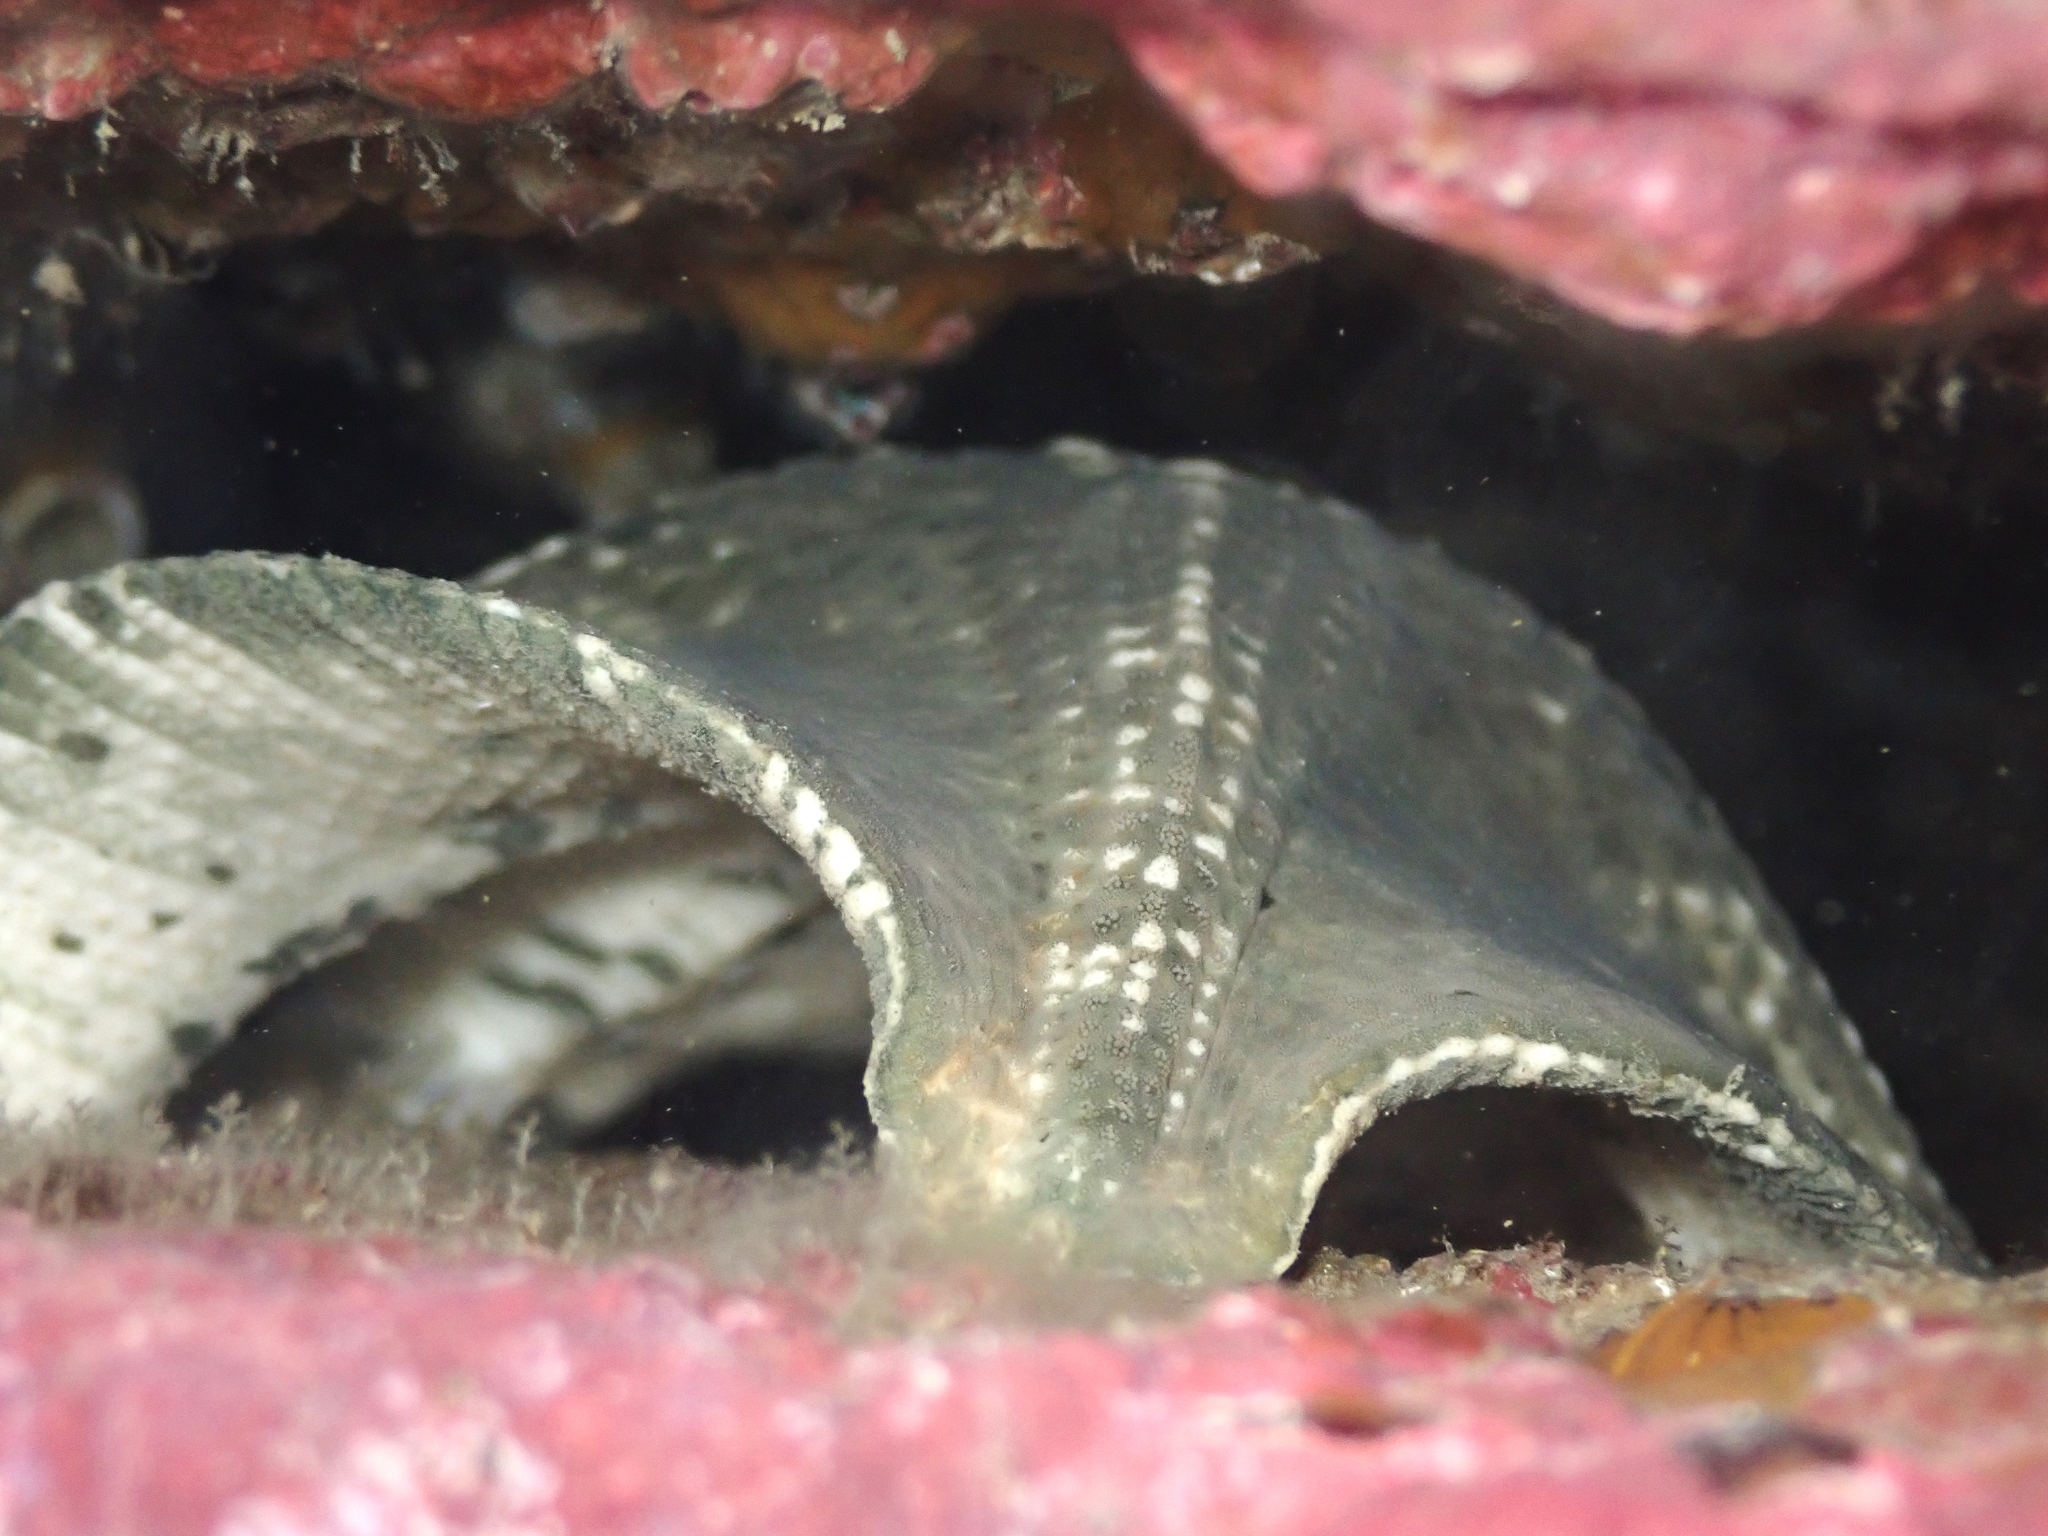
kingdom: Animalia
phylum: Echinodermata
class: Asteroidea
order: Valvatida
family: Asterinidae
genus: Stegnaster
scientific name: Stegnaster inflatus
